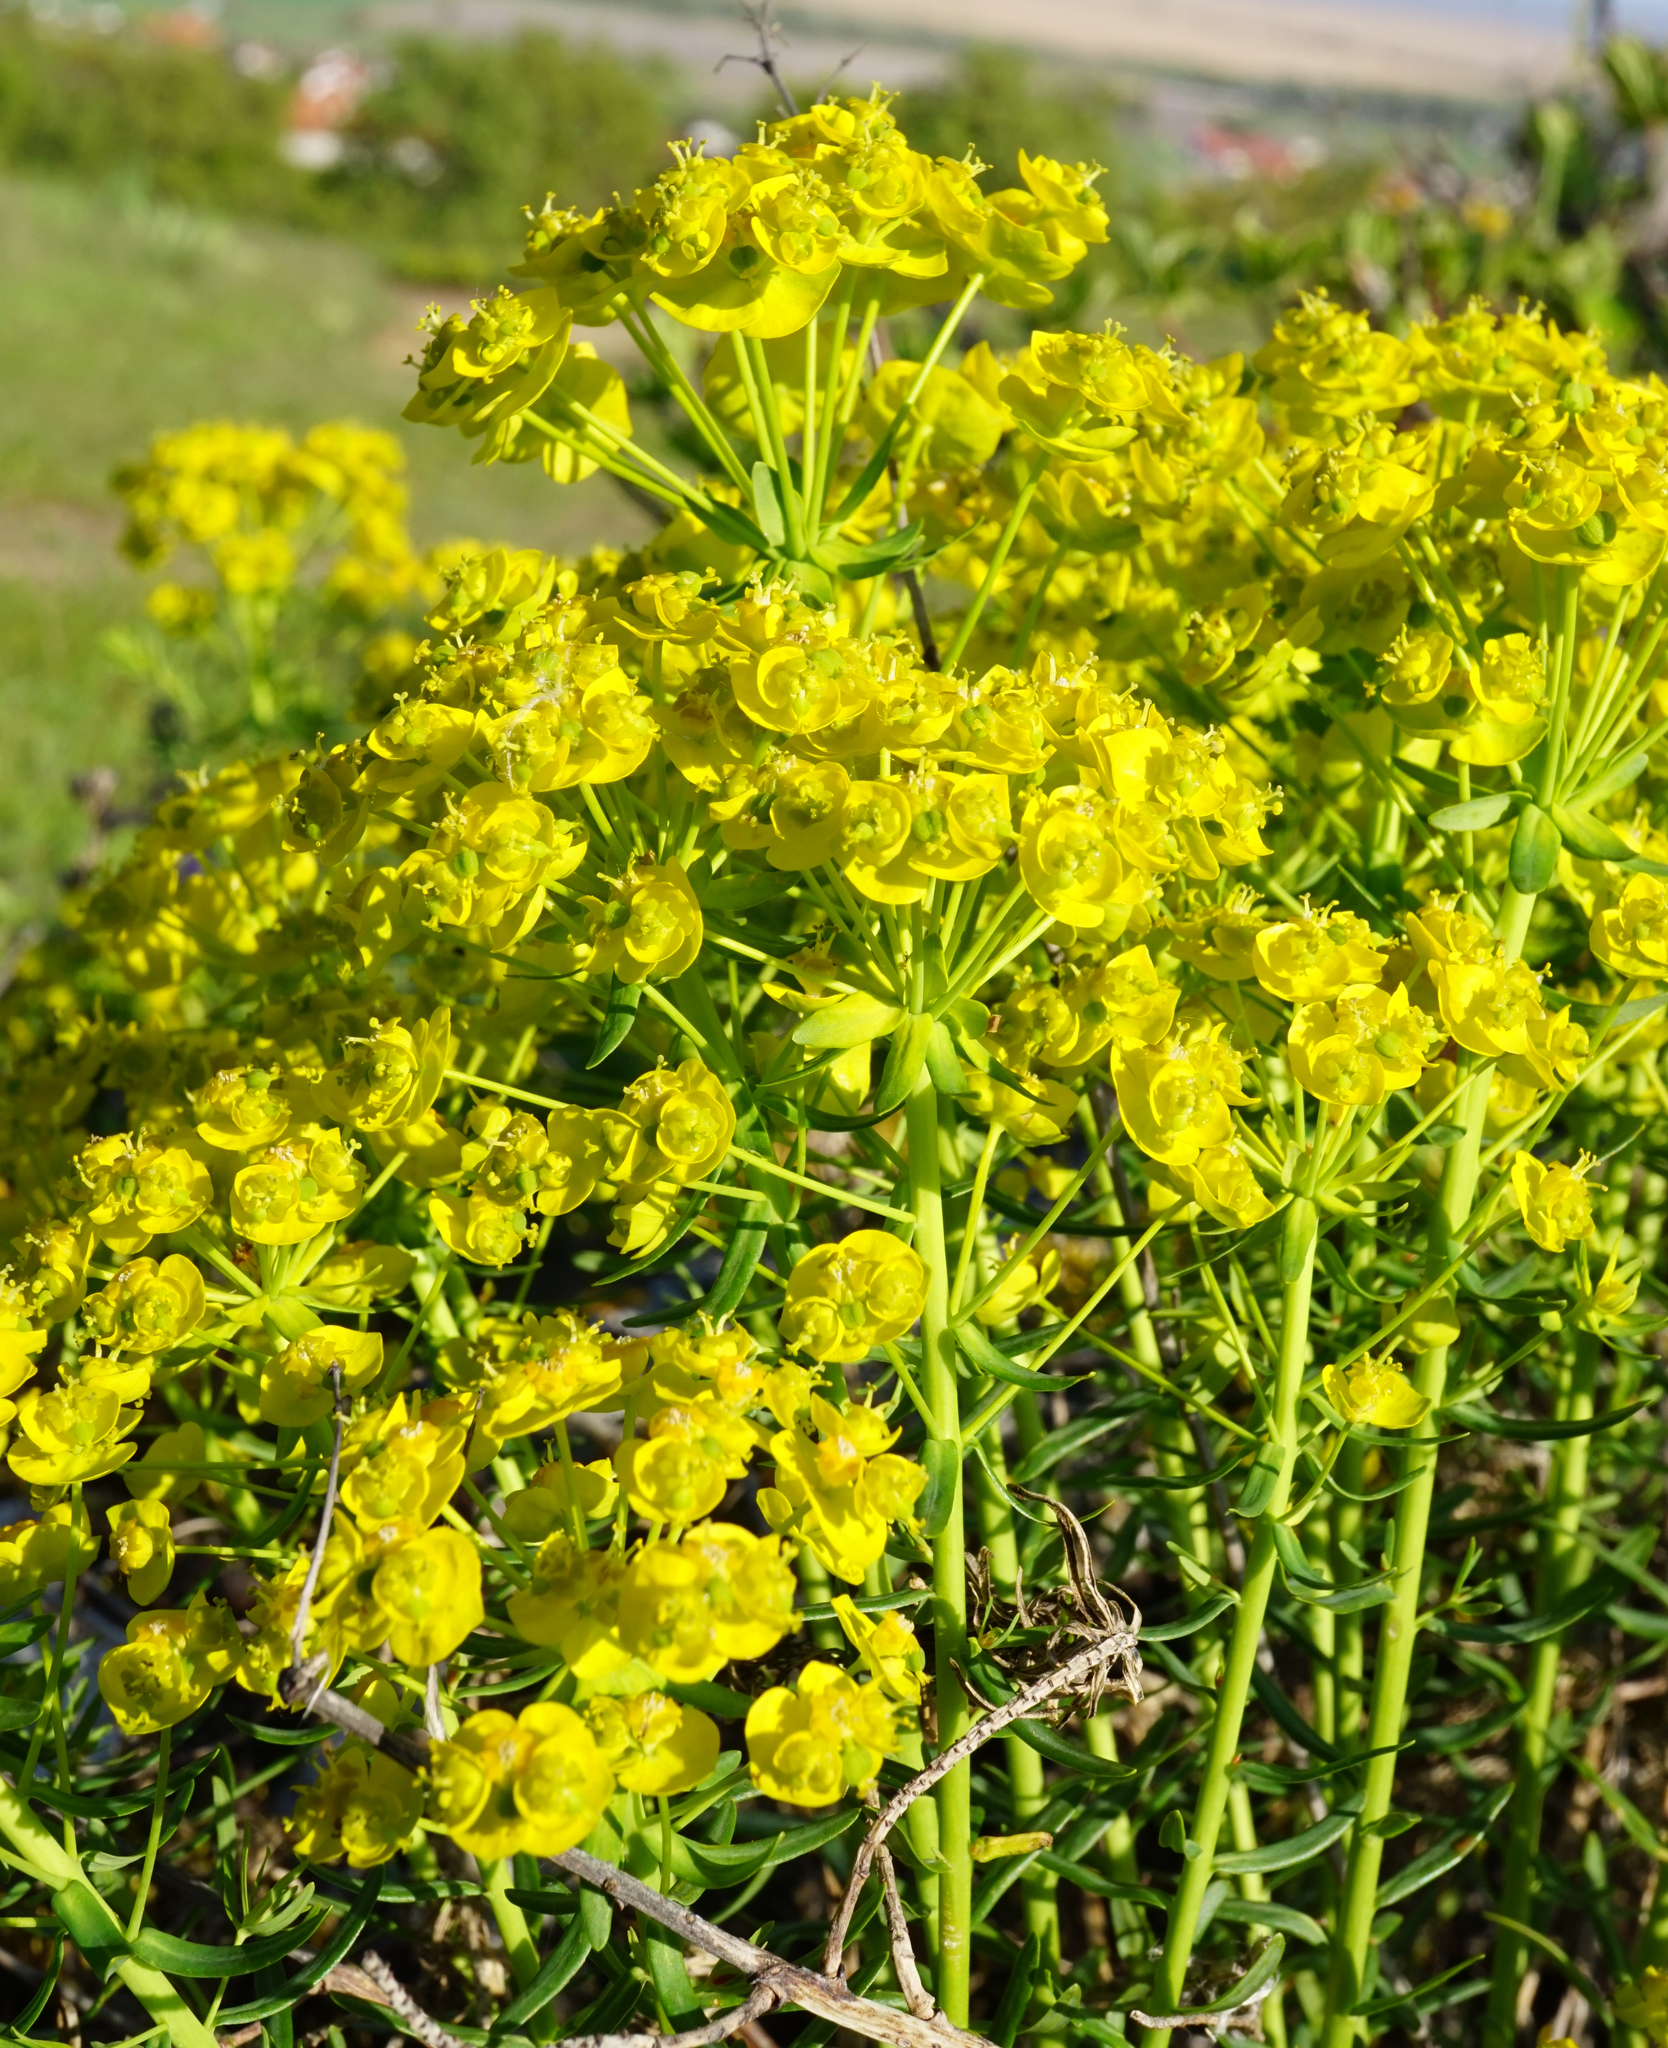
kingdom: Plantae
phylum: Tracheophyta
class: Magnoliopsida
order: Malpighiales
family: Euphorbiaceae
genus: Euphorbia
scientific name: Euphorbia cyparissias
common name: Cypress spurge
